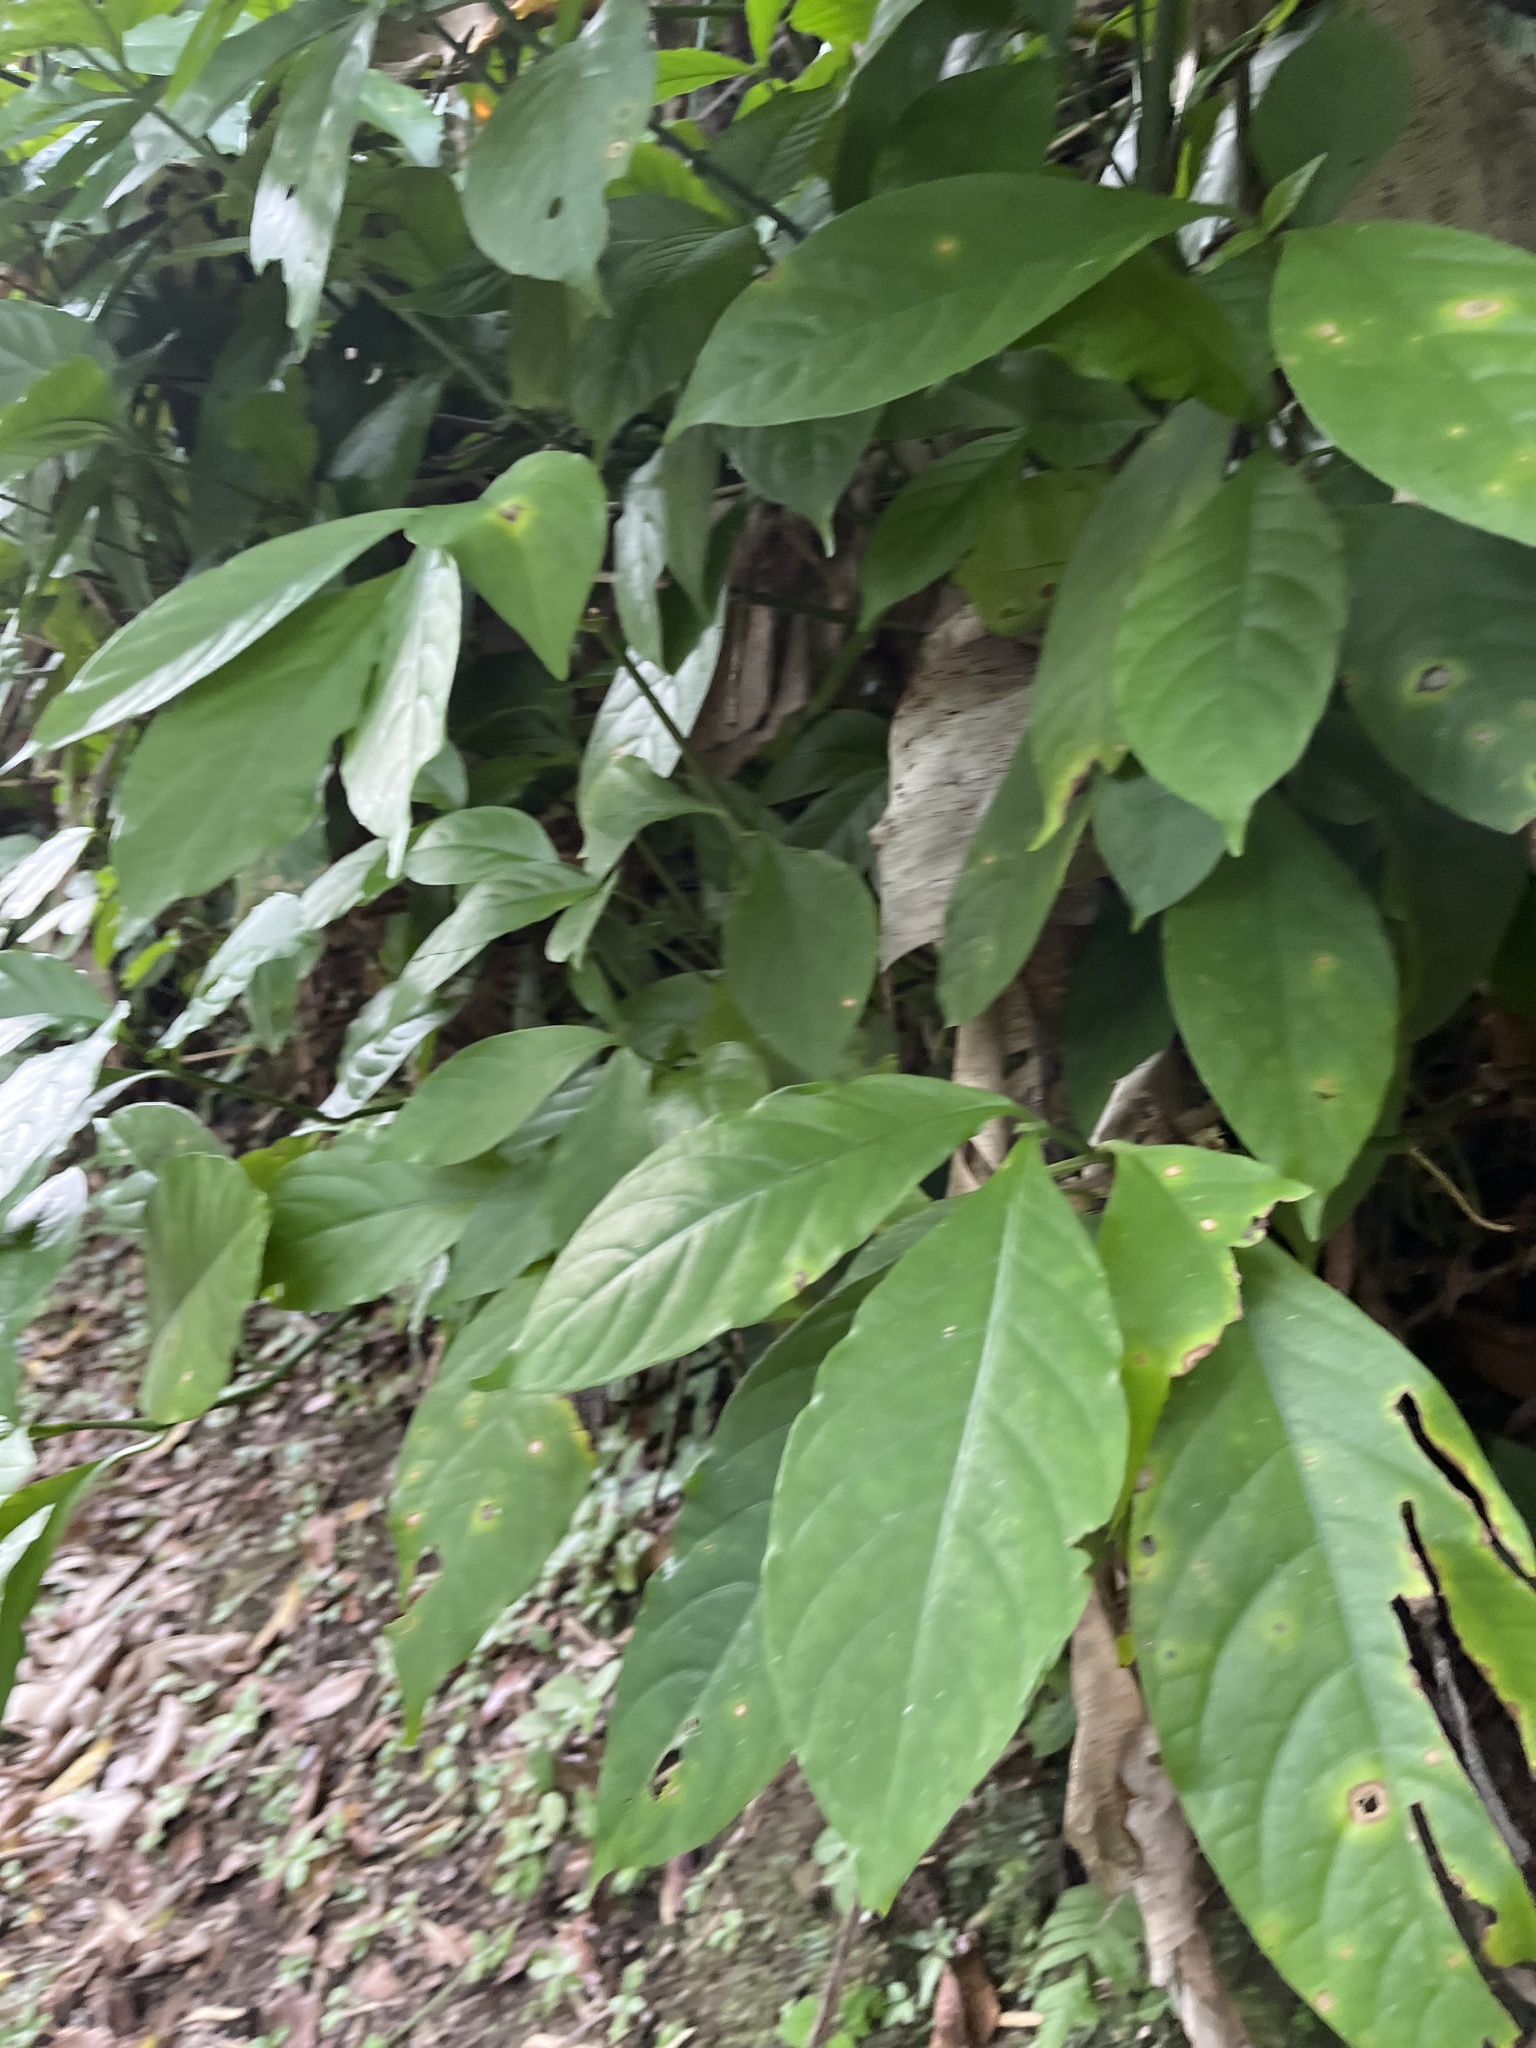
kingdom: Plantae
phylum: Tracheophyta
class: Magnoliopsida
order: Lamiales
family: Acanthaceae
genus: Odontonema
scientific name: Odontonema cuspidatum
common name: Mottled toothedthread
